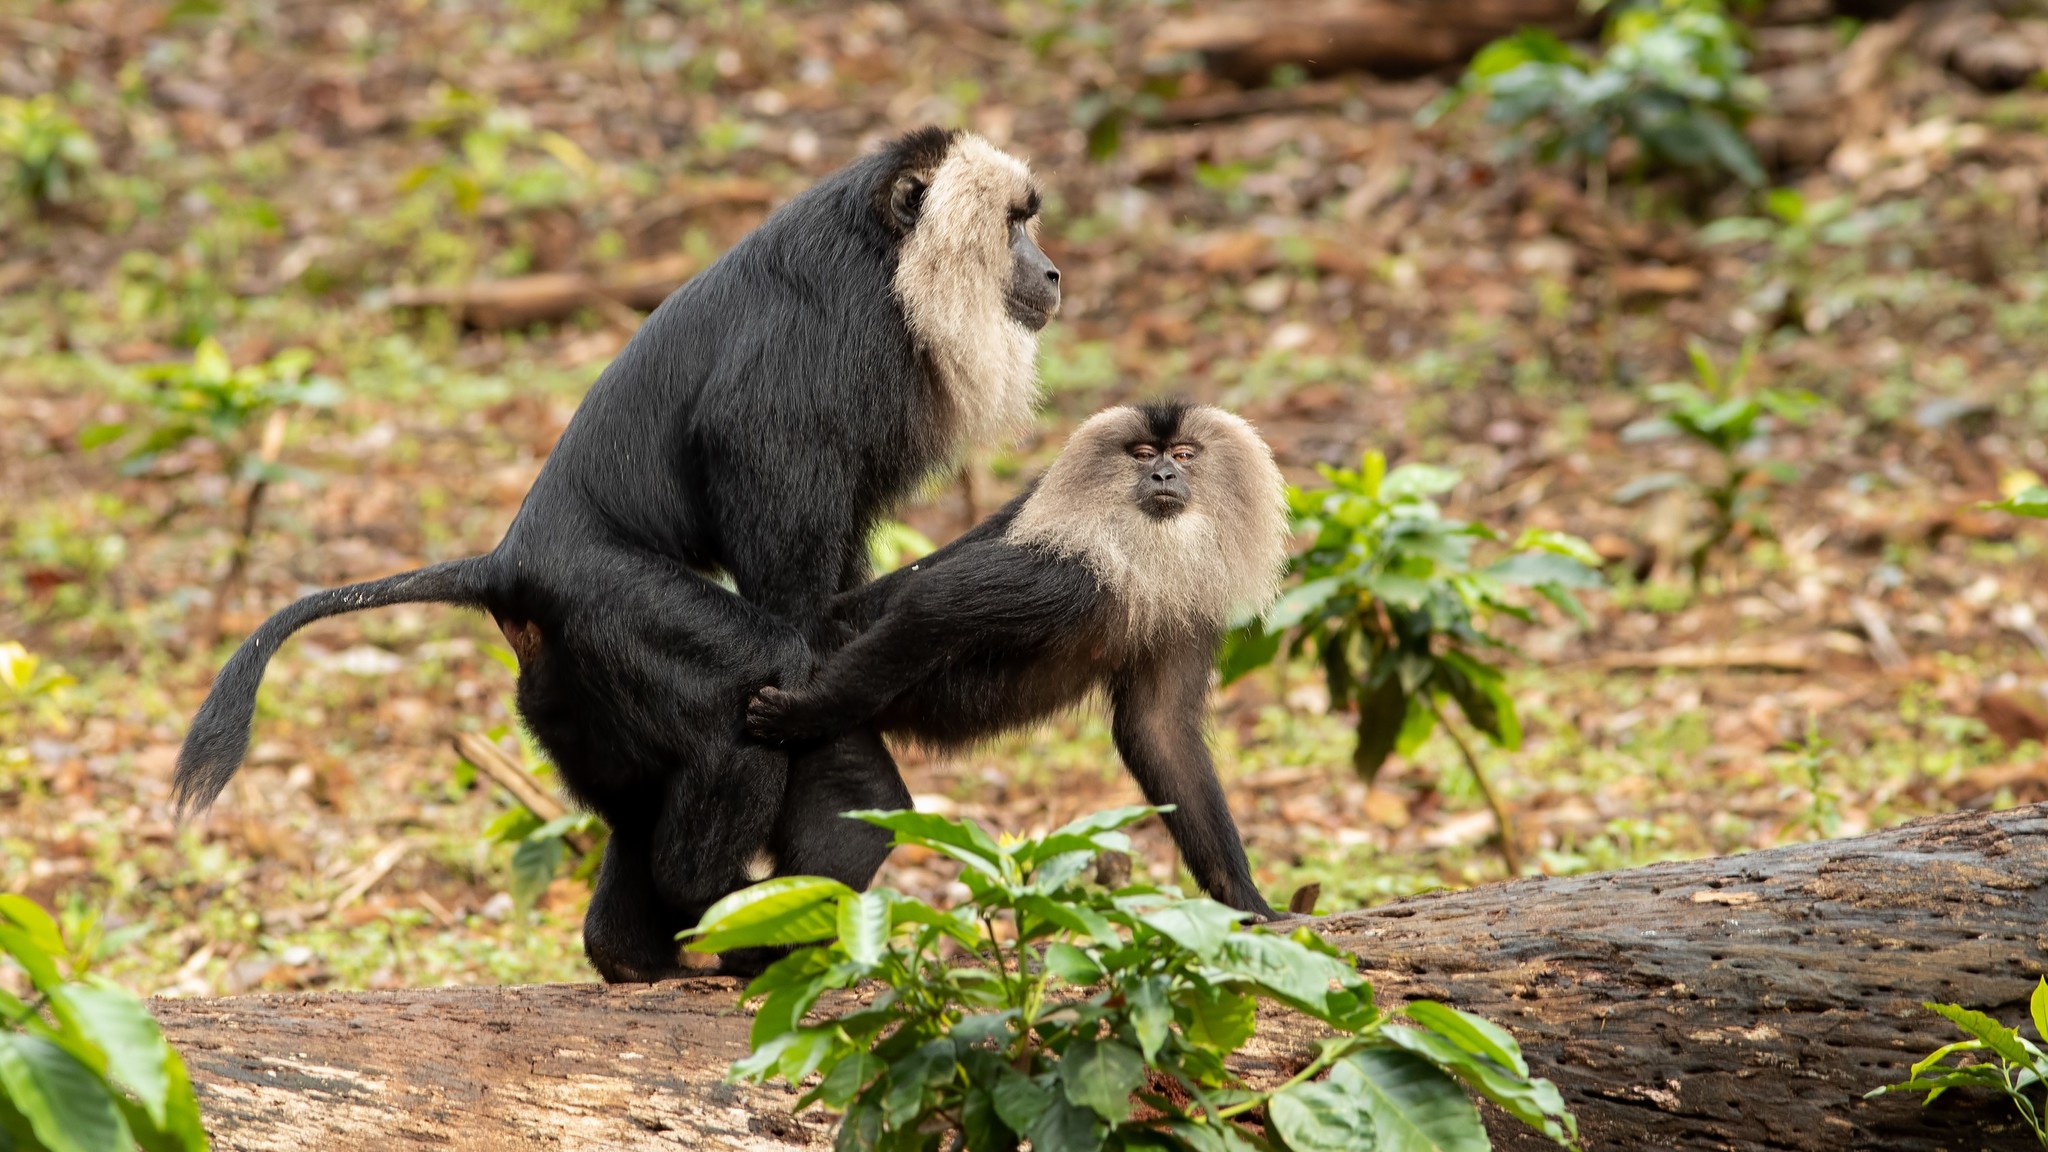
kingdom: Animalia
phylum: Chordata
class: Mammalia
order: Primates
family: Cercopithecidae
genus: Macaca
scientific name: Macaca silenus
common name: Lion-tailed macaque
